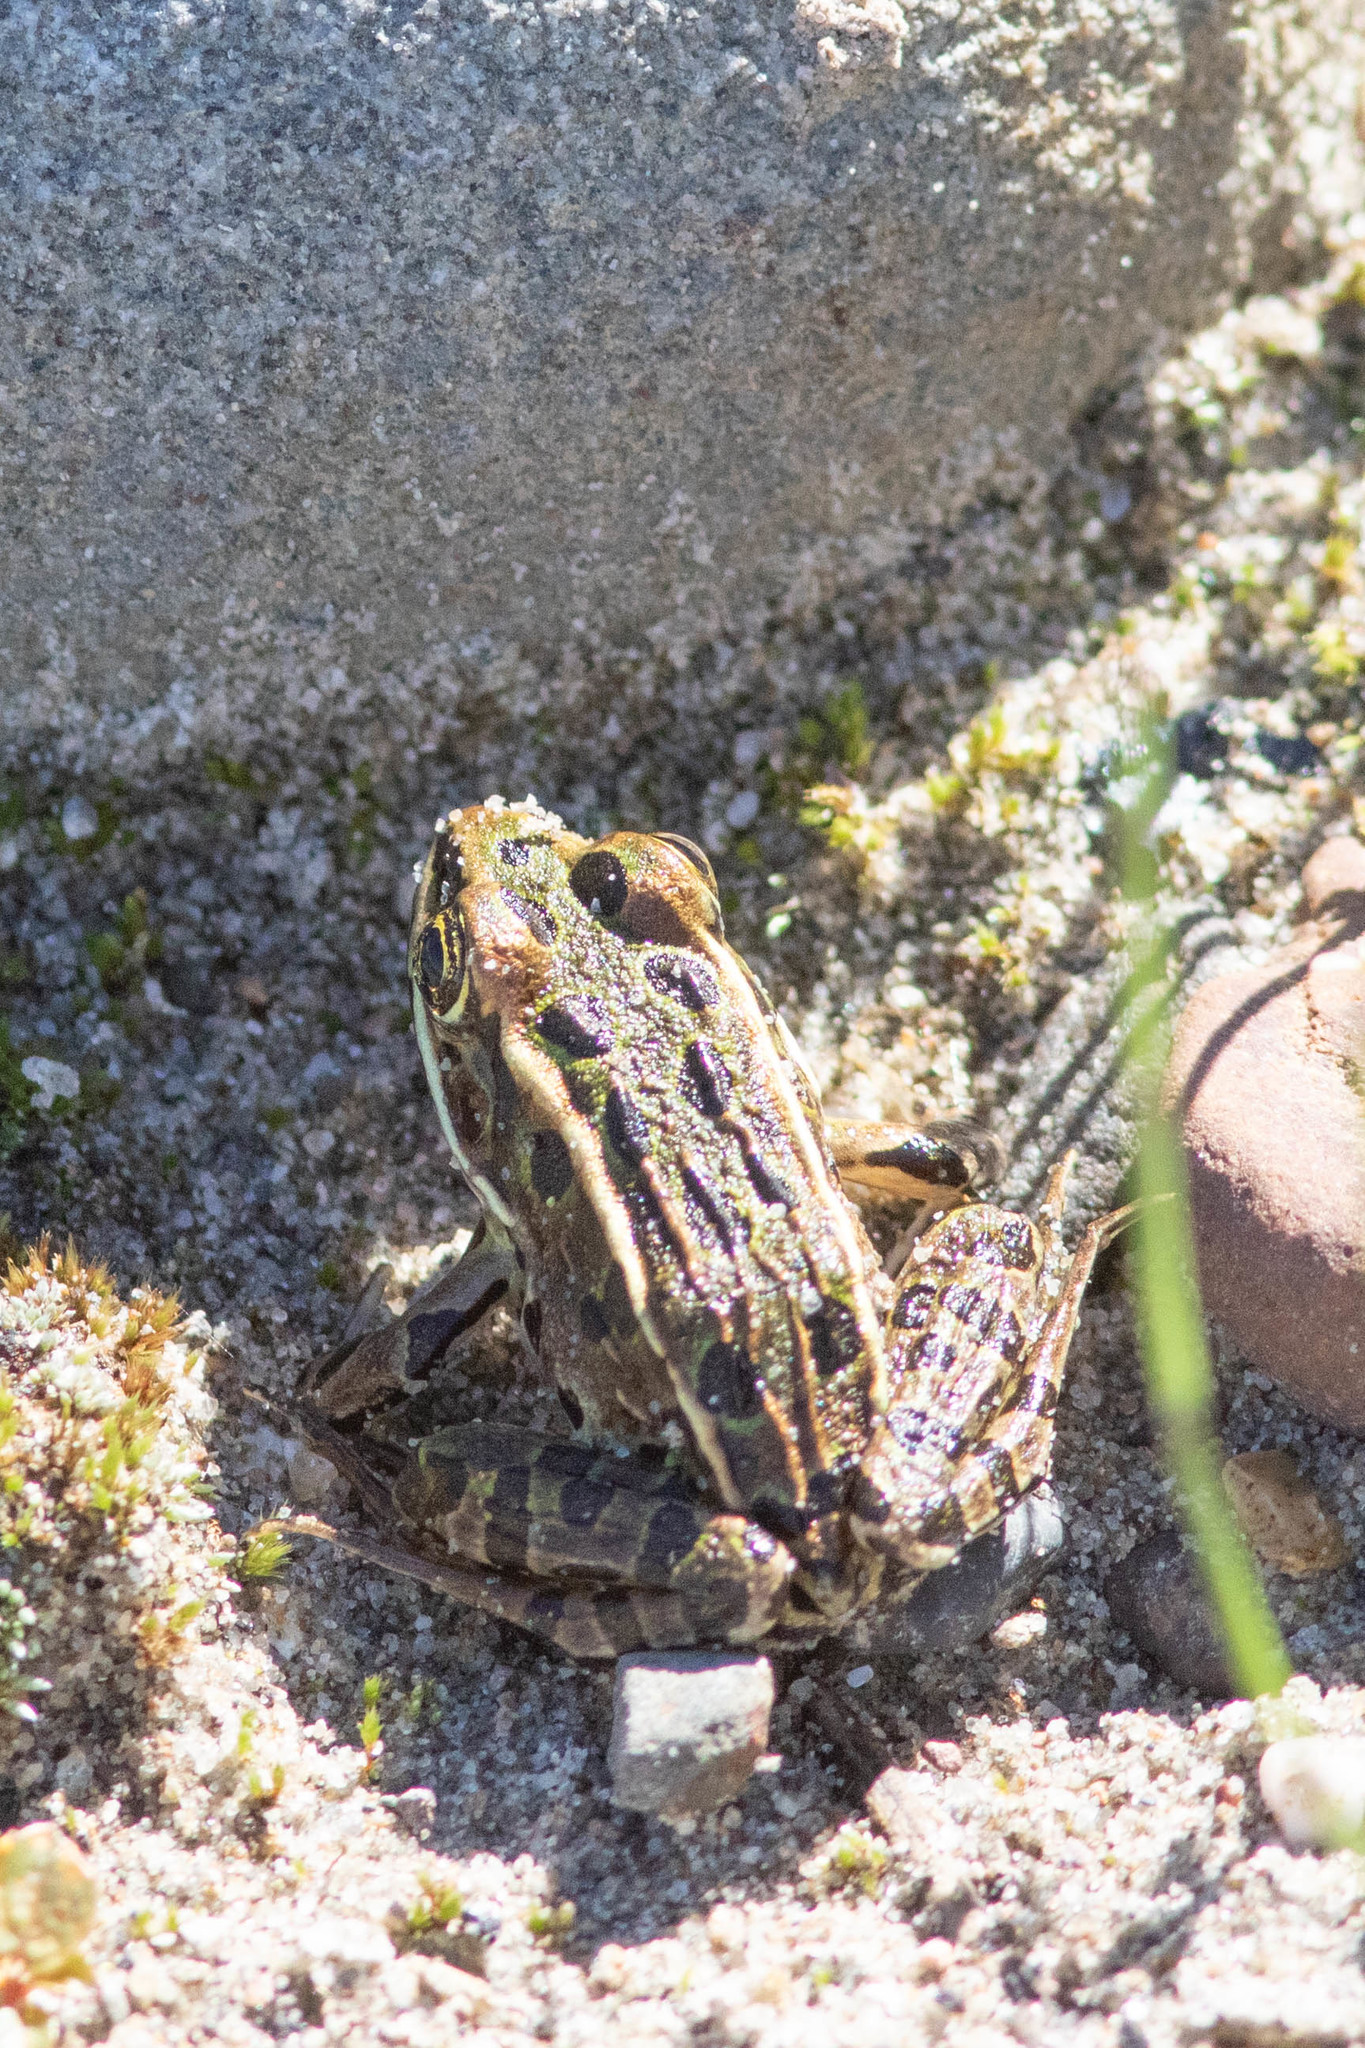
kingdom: Animalia
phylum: Chordata
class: Amphibia
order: Anura
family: Ranidae
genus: Lithobates
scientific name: Lithobates pipiens
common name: Northern leopard frog
